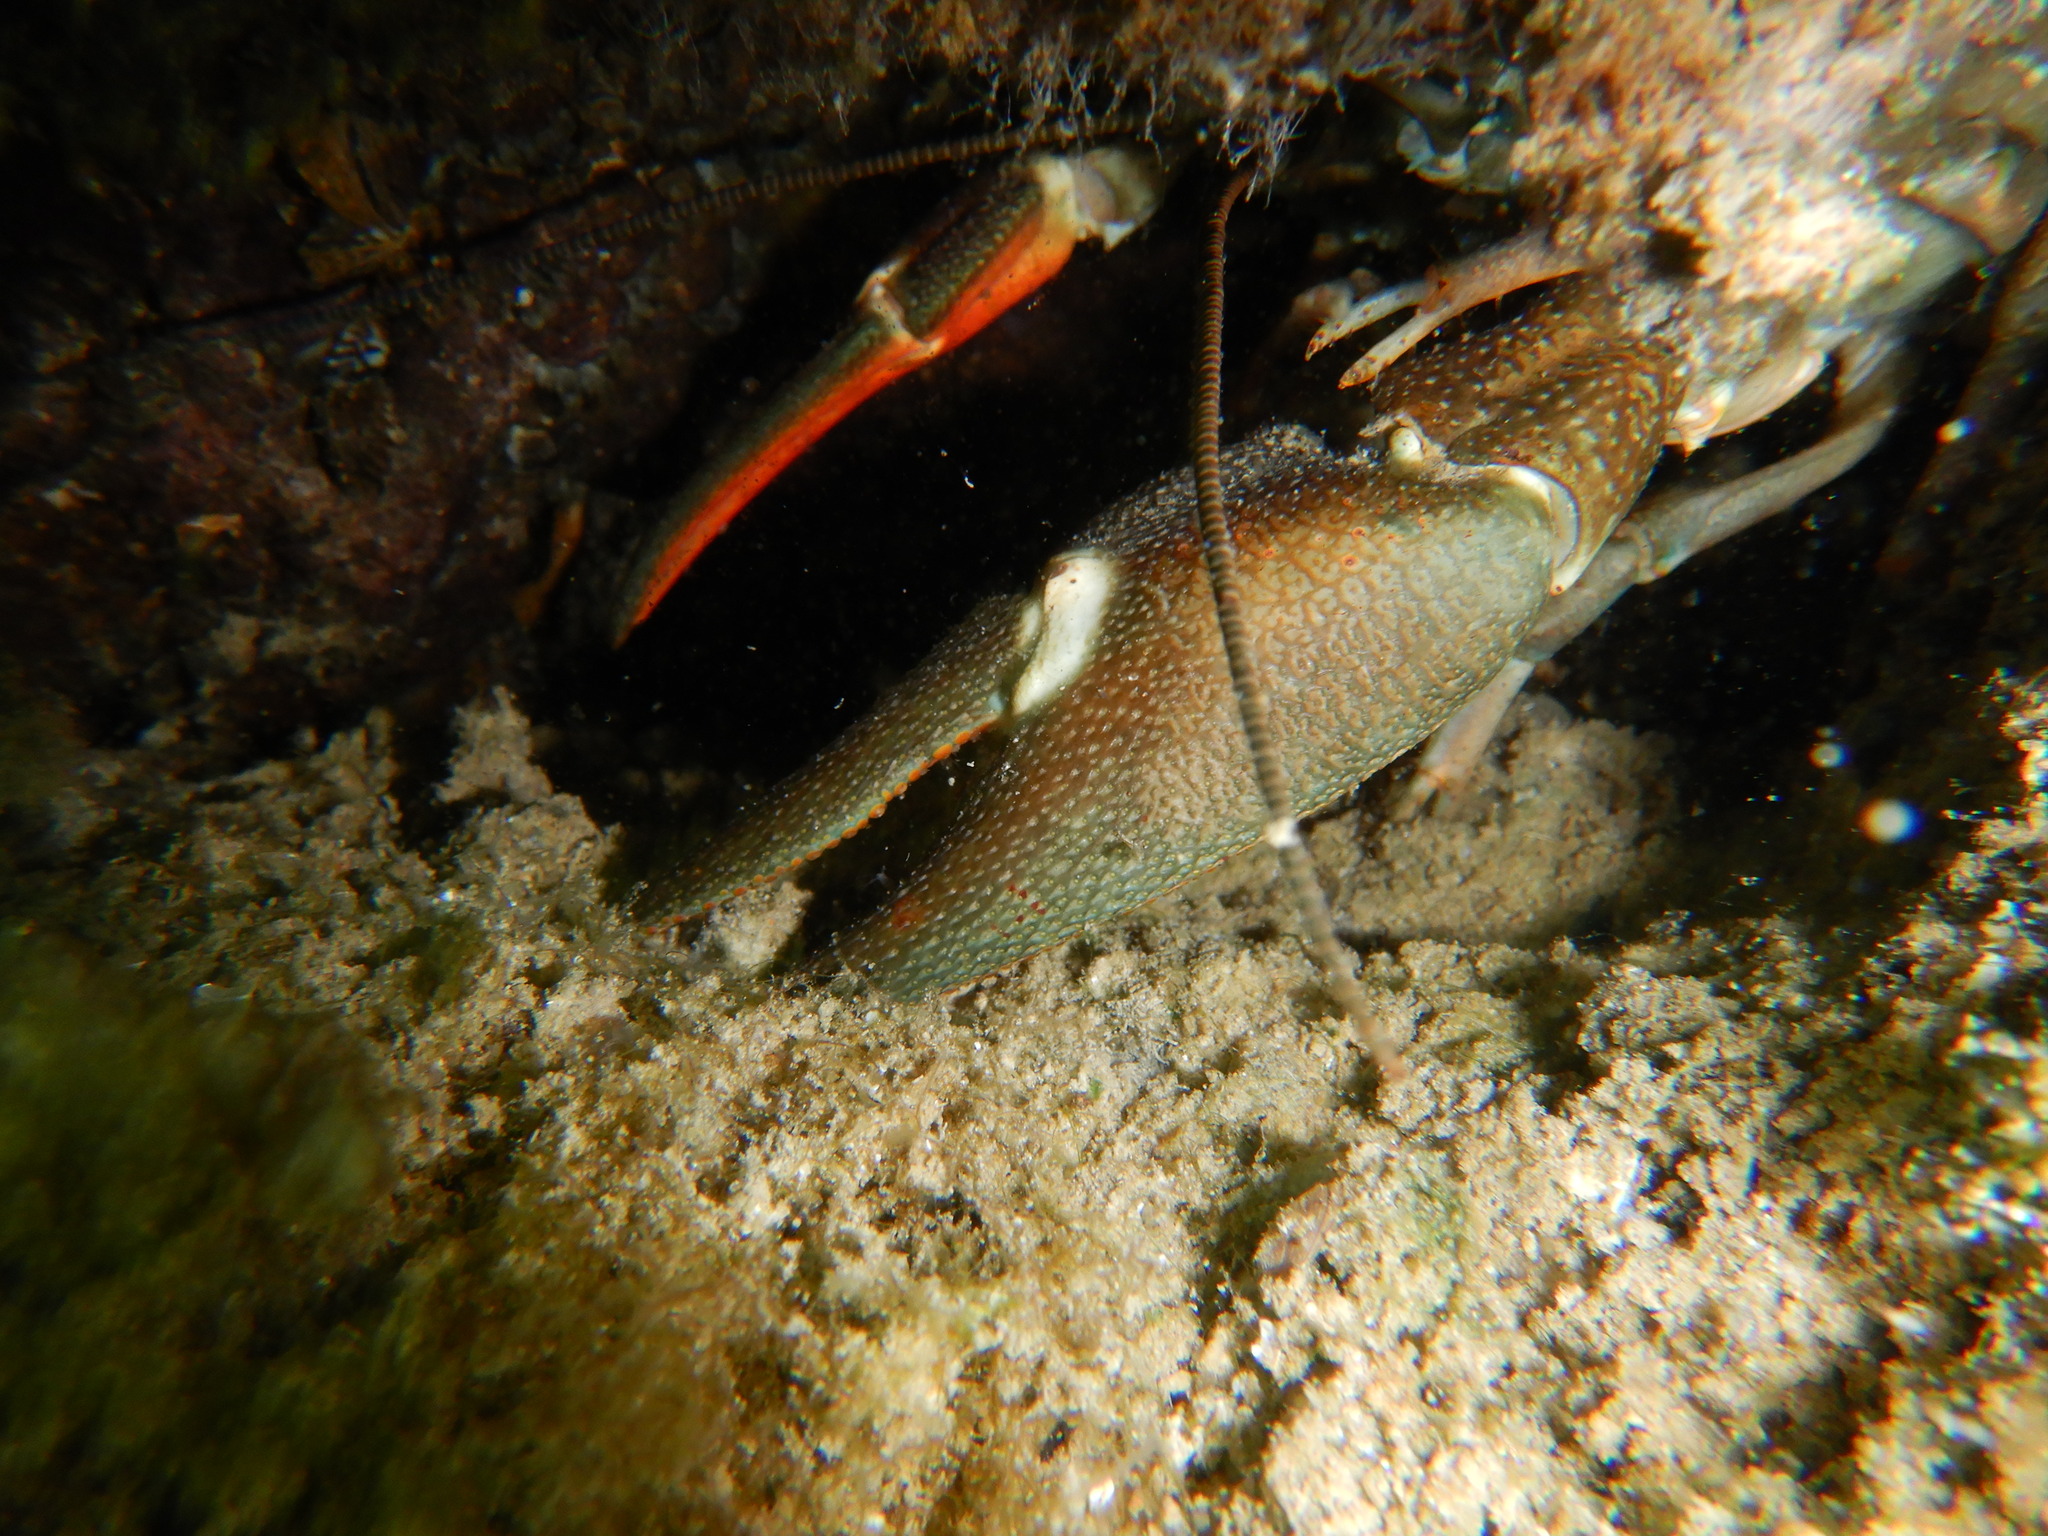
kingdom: Animalia
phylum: Arthropoda
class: Malacostraca
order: Decapoda
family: Astacidae
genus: Pacifastacus
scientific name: Pacifastacus leniusculus
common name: Signal crayfish
